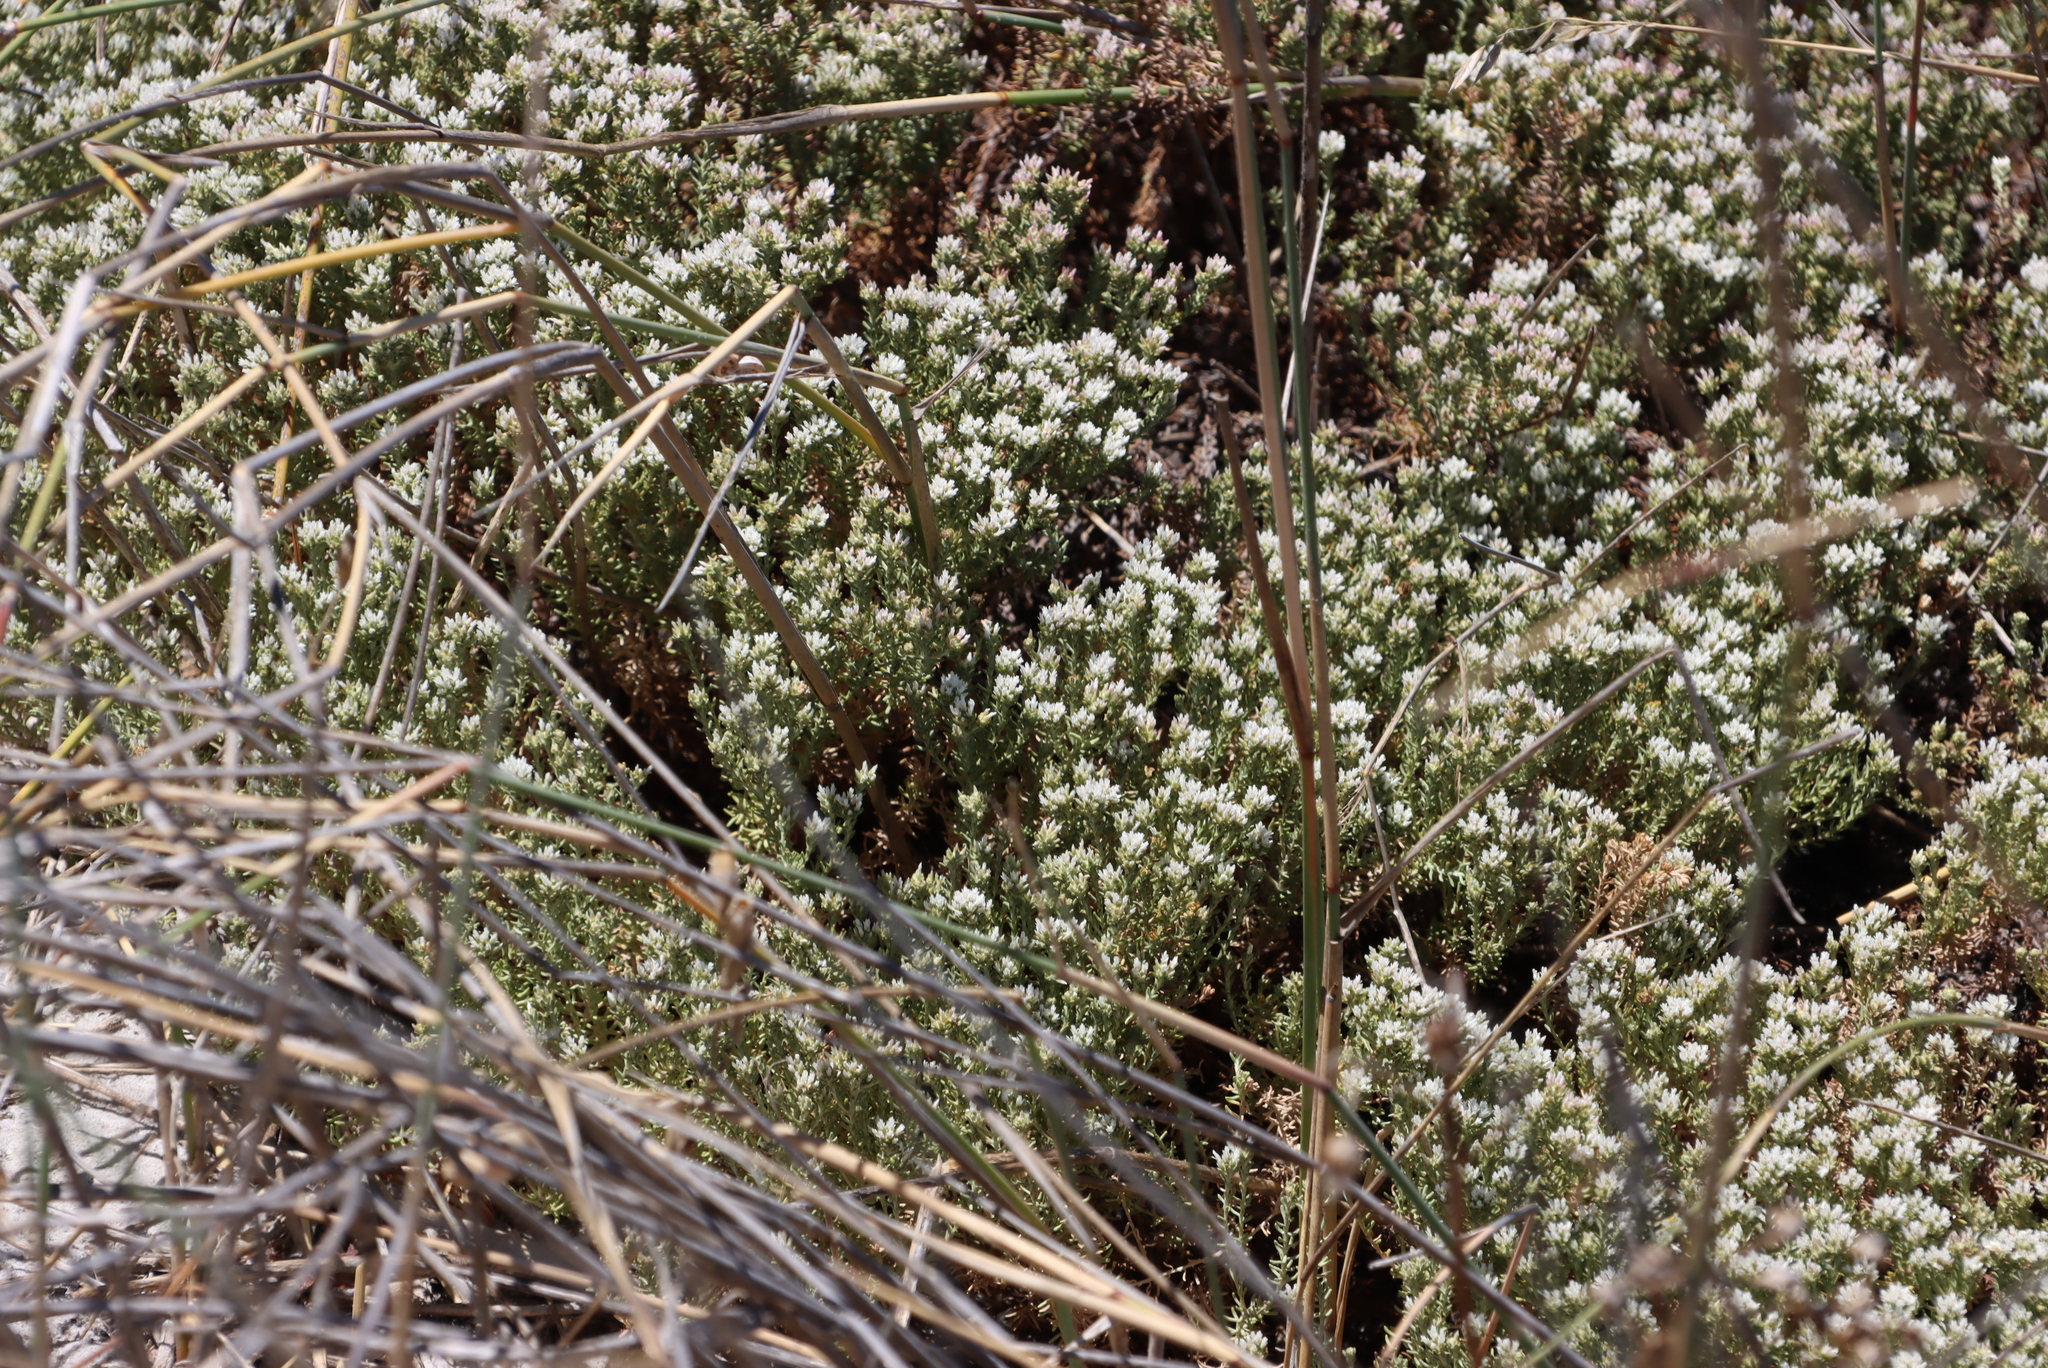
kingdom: Plantae
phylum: Tracheophyta
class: Magnoliopsida
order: Asterales
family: Asteraceae
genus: Helichrysum
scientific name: Helichrysum niveum
